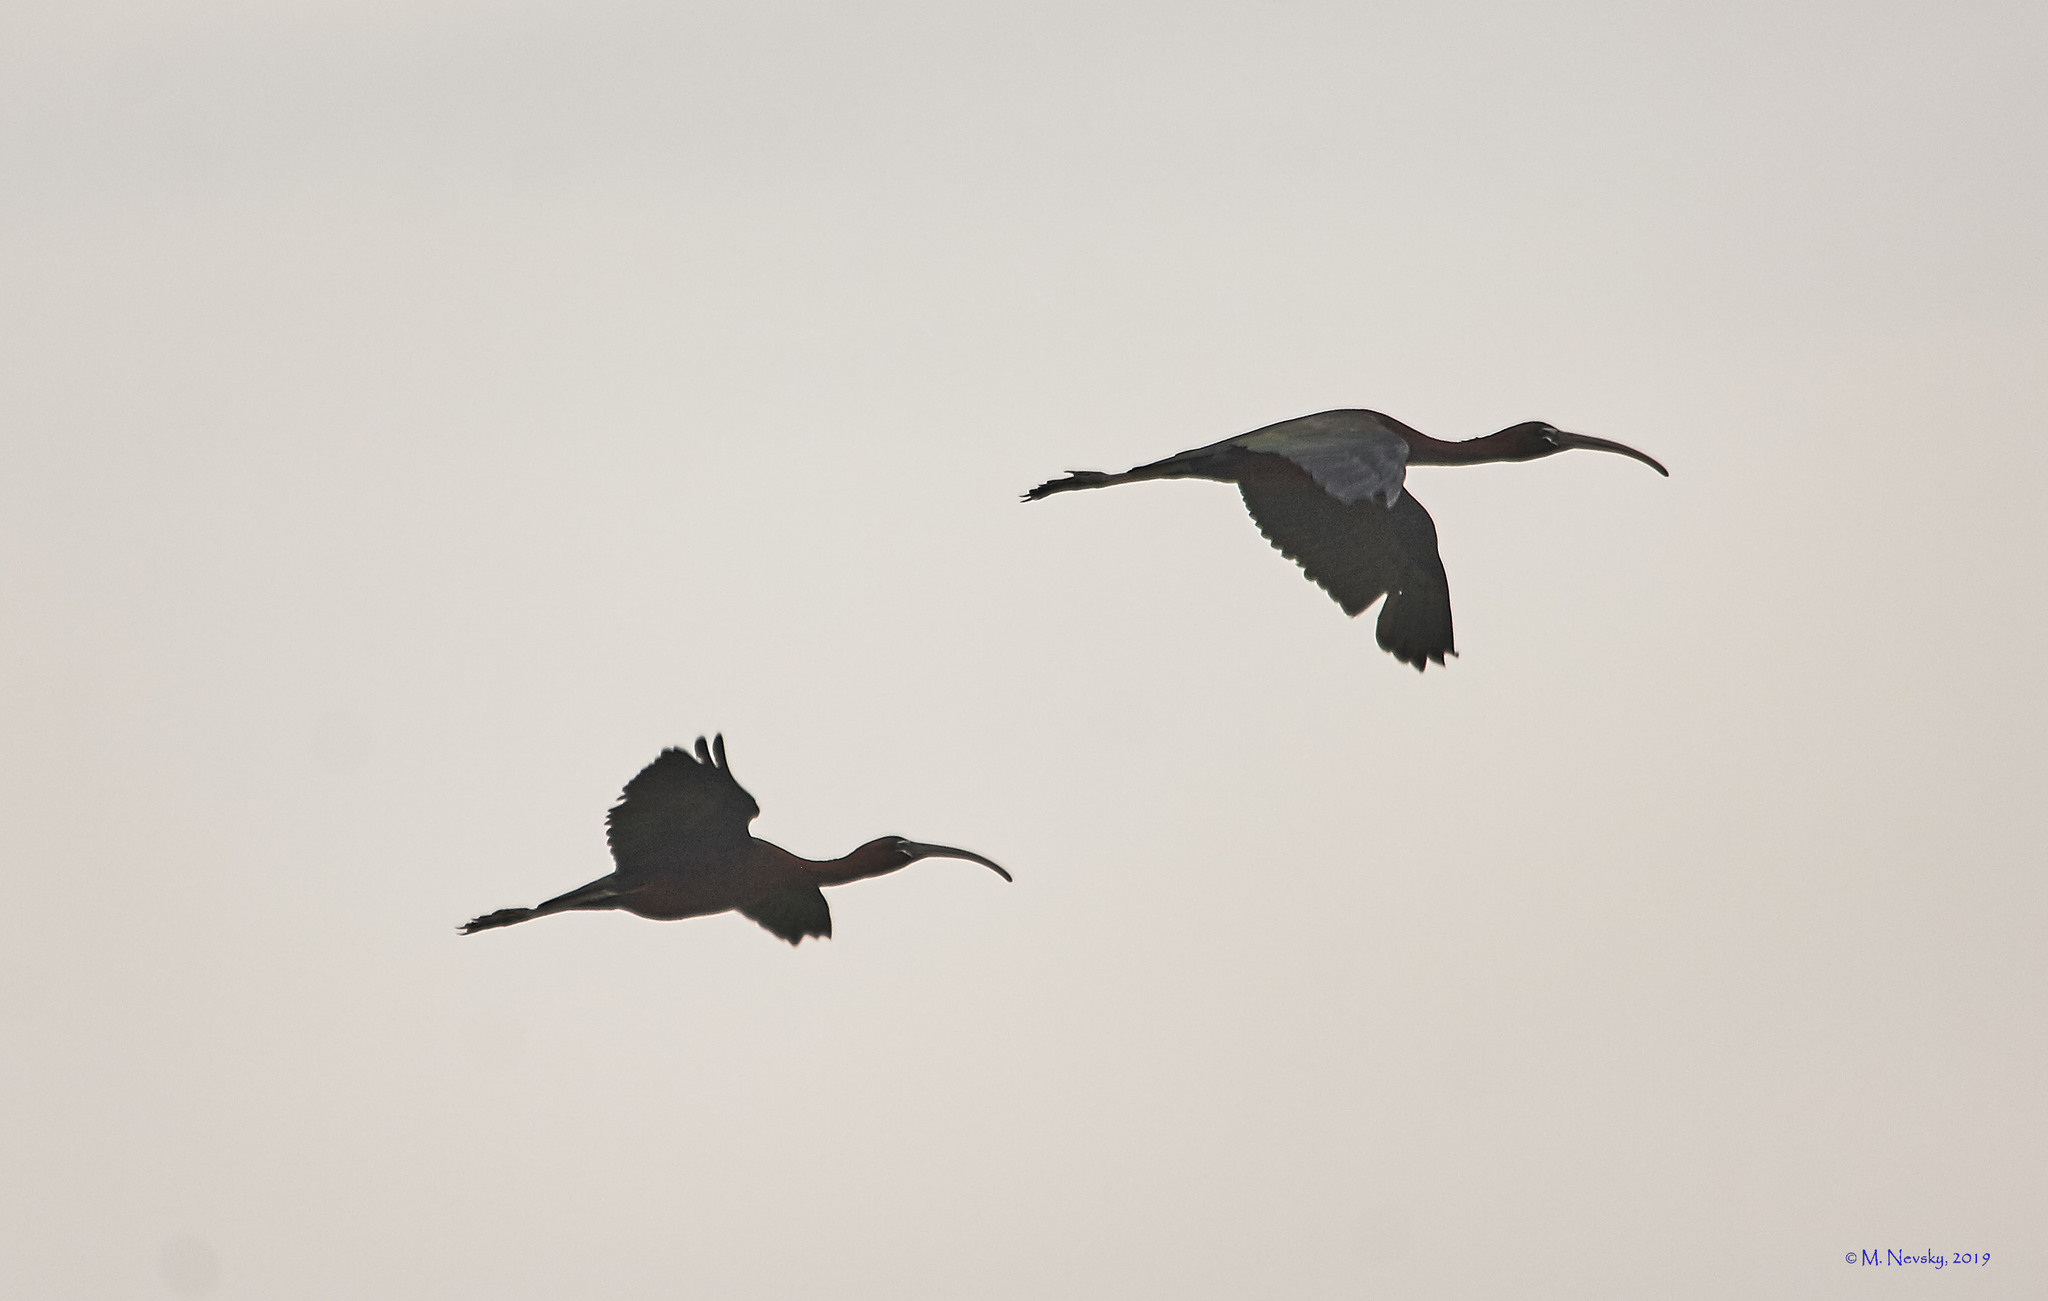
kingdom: Animalia
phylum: Chordata
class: Aves
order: Pelecaniformes
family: Threskiornithidae
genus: Plegadis
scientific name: Plegadis falcinellus
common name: Glossy ibis
